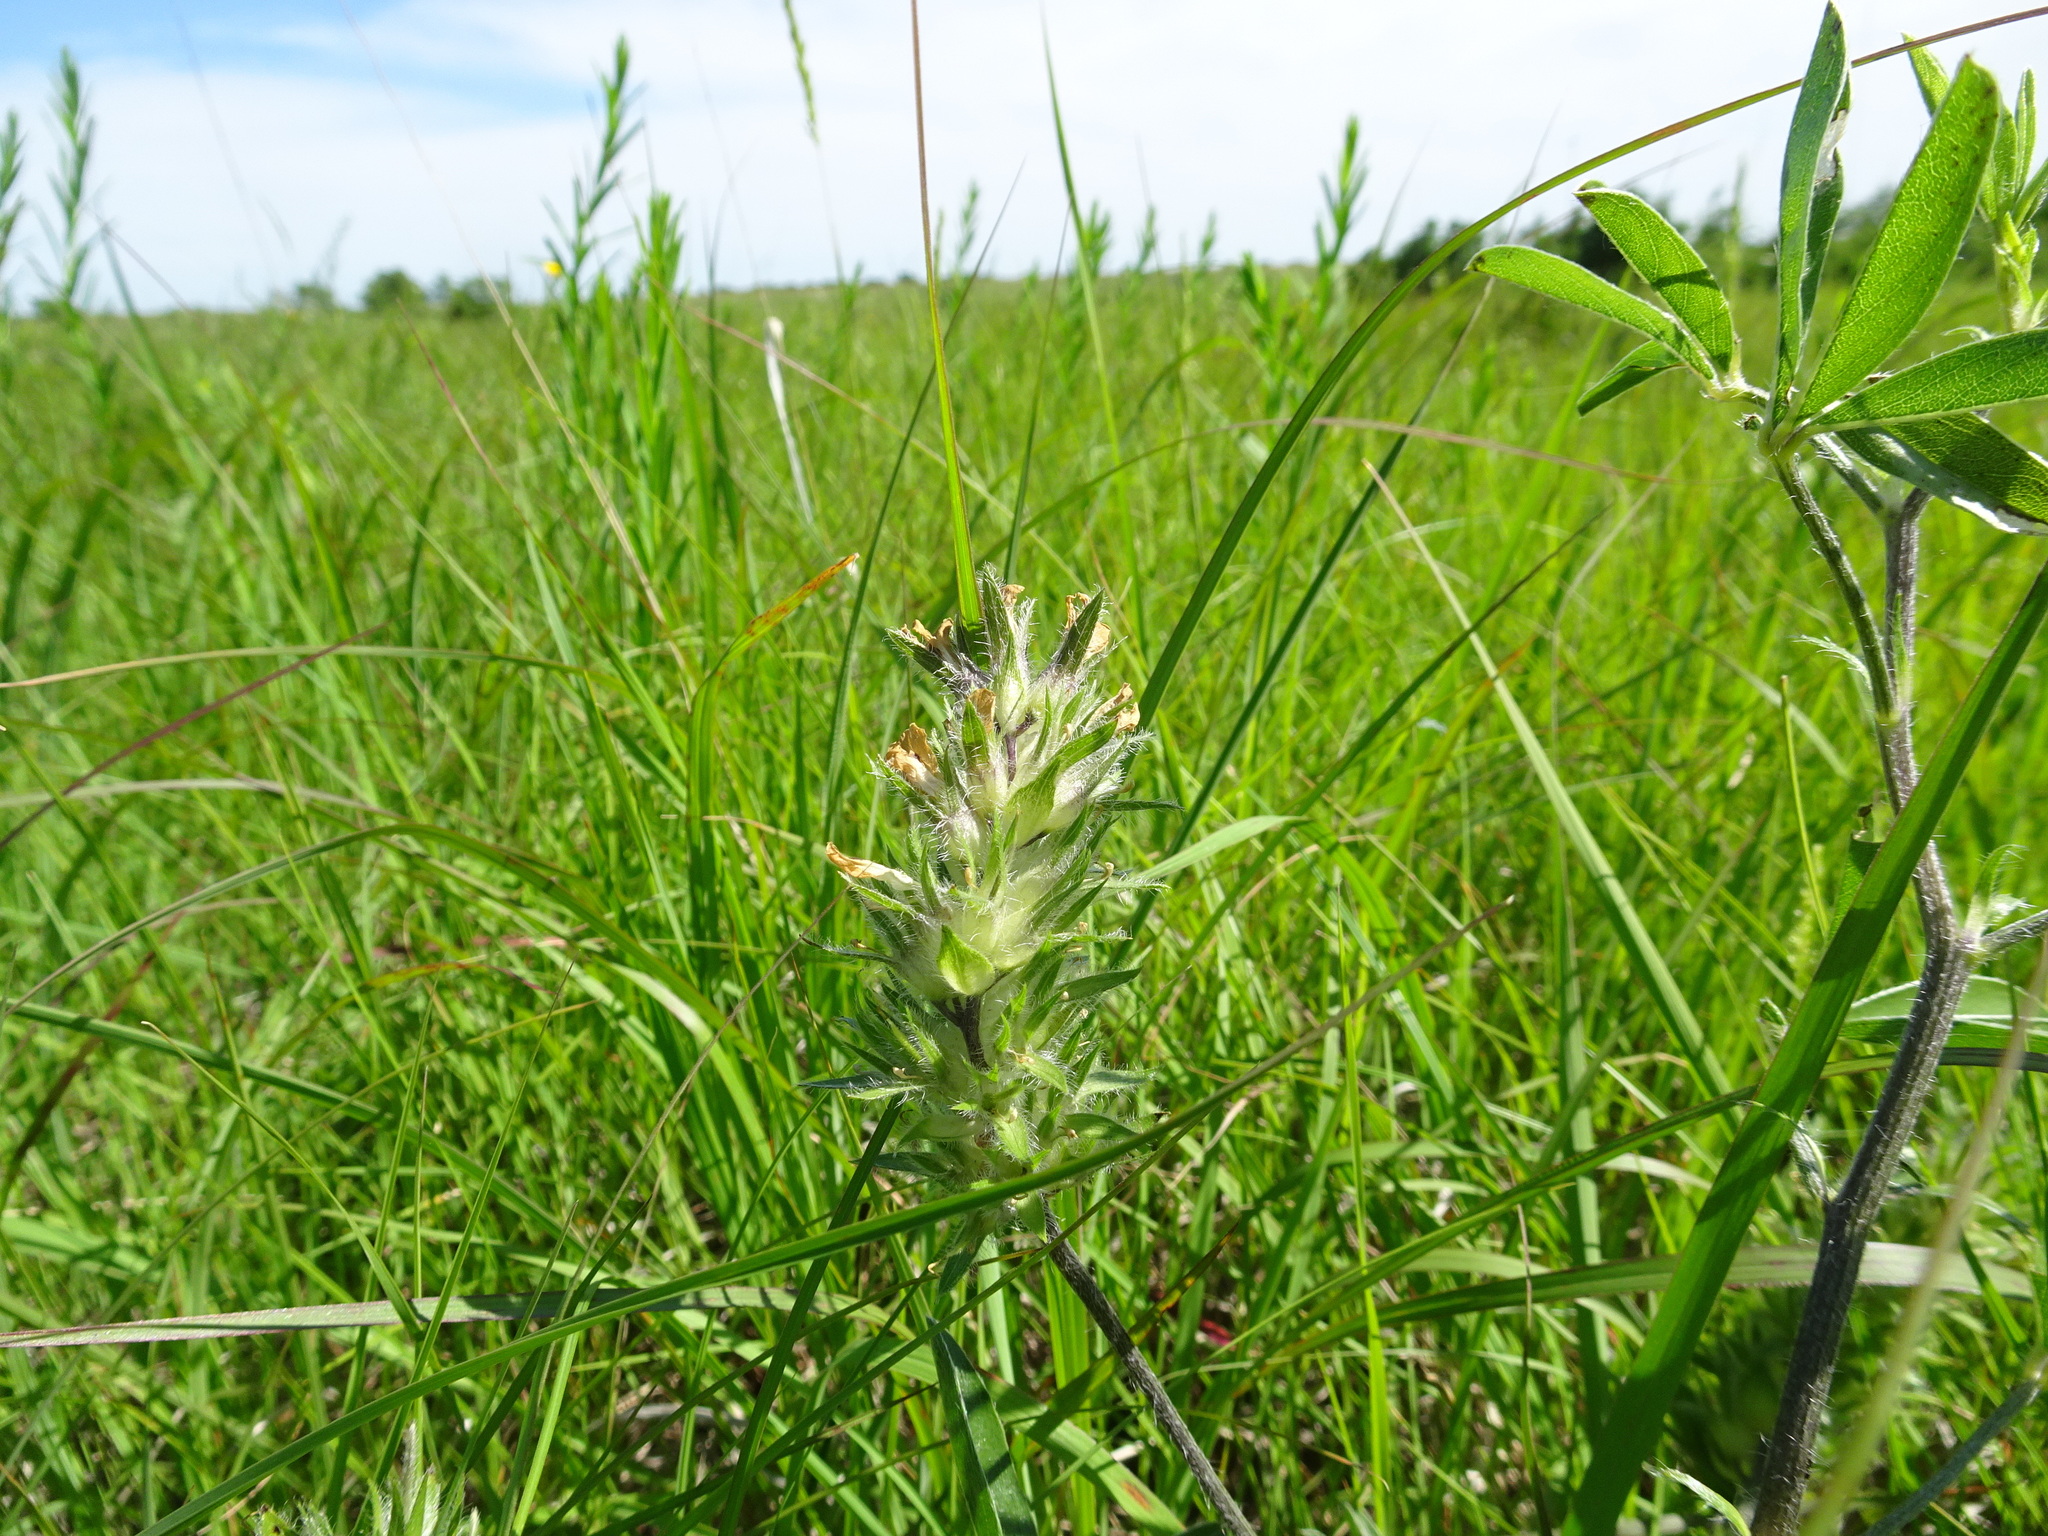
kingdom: Plantae
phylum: Tracheophyta
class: Magnoliopsida
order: Fabales
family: Fabaceae
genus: Pediomelum
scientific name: Pediomelum esculentum
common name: Indian-turnip
